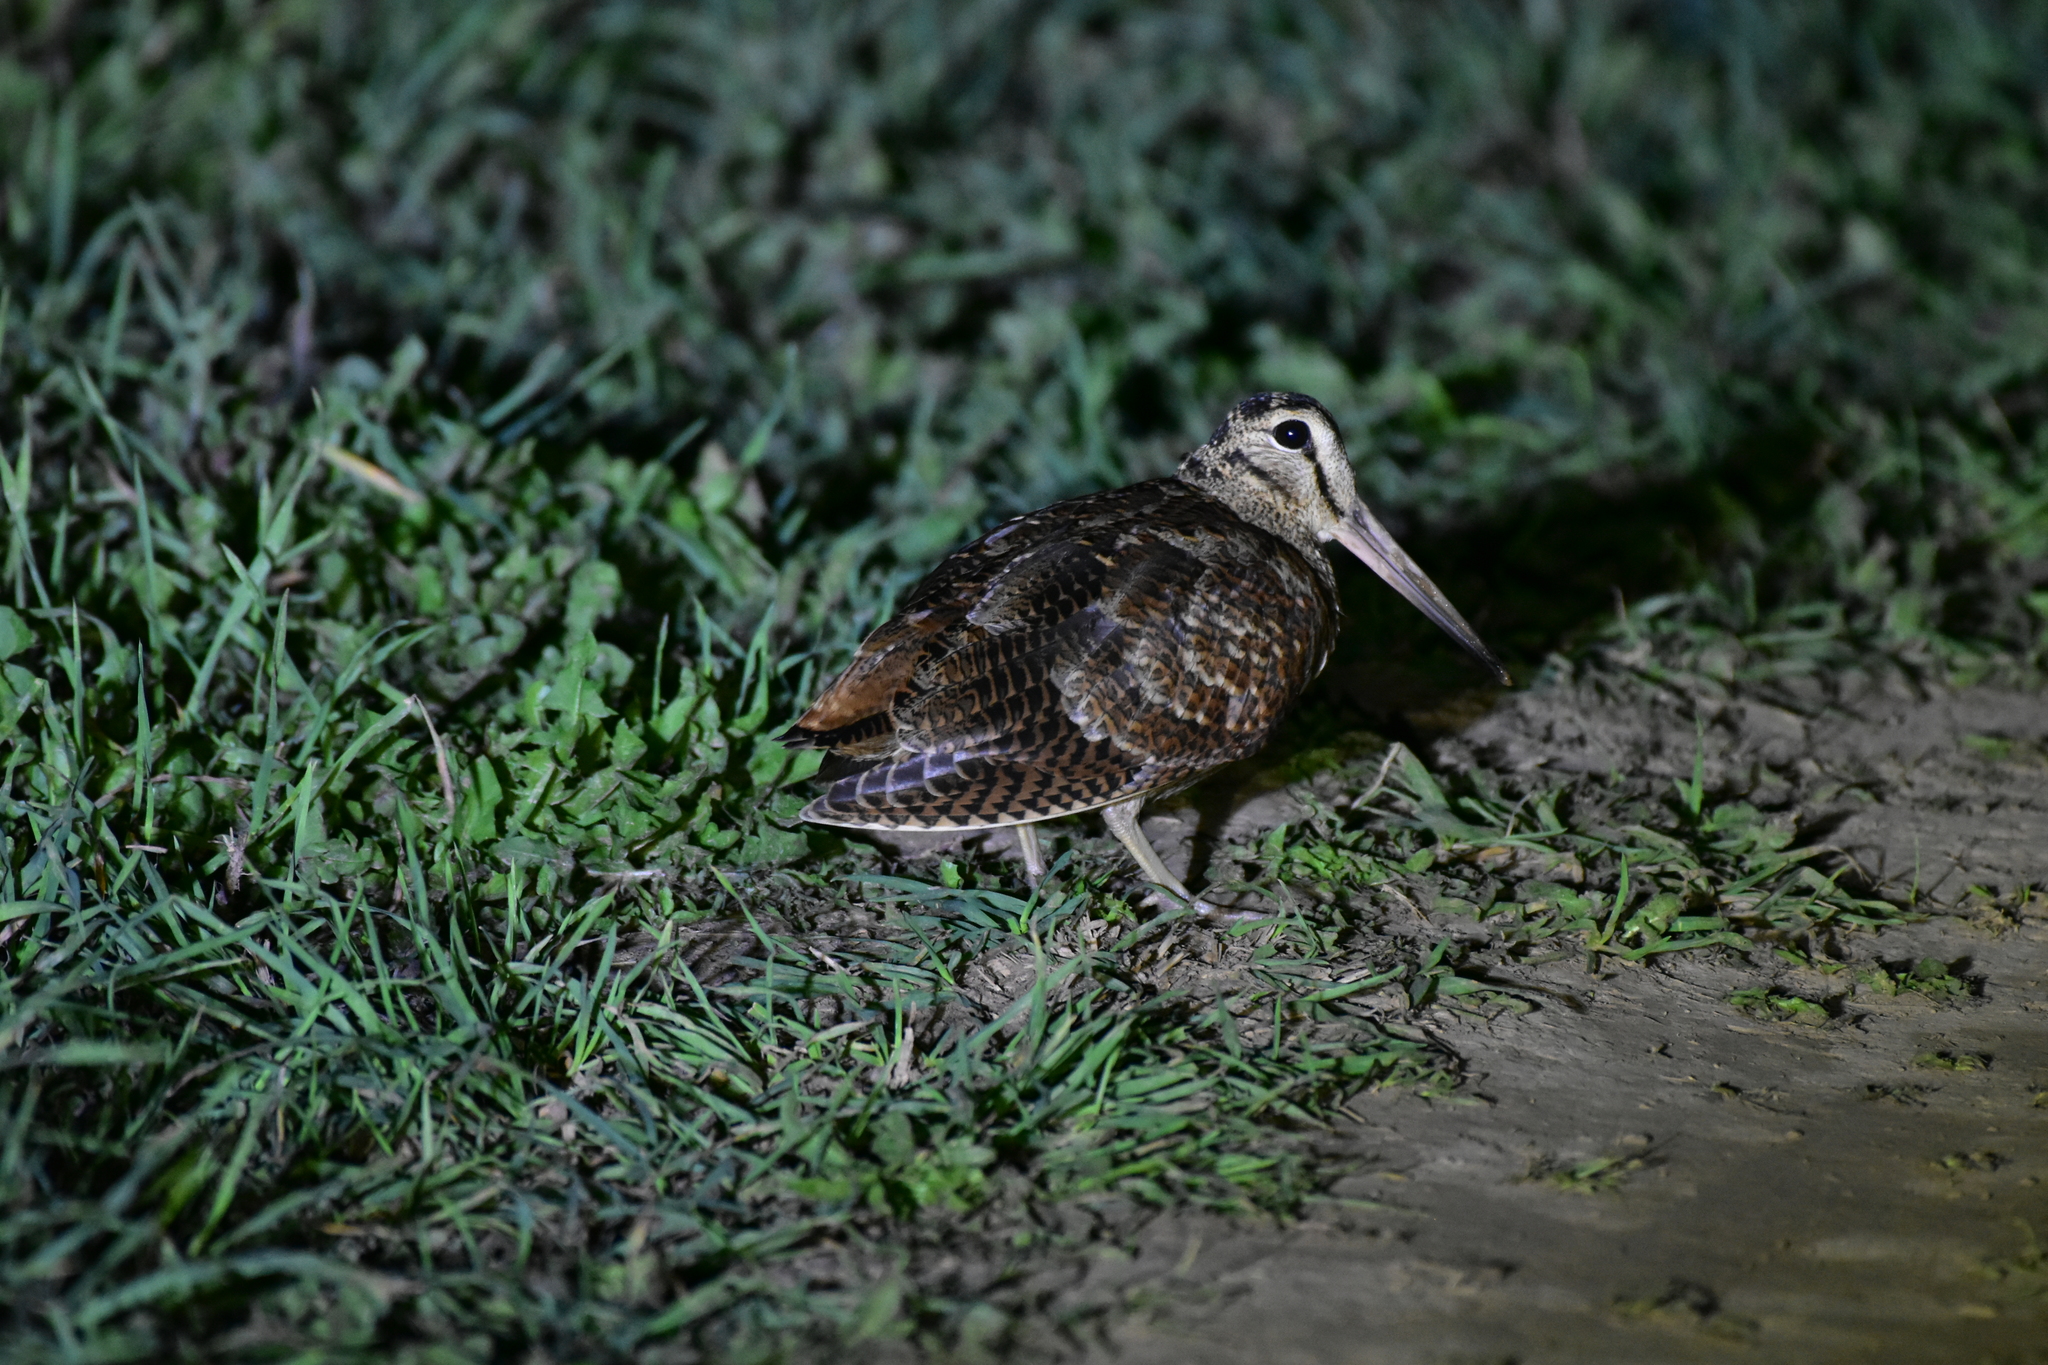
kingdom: Animalia
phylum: Chordata
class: Aves
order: Charadriiformes
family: Scolopacidae
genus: Scolopax
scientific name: Scolopax rusticola
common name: Eurasian woodcock
